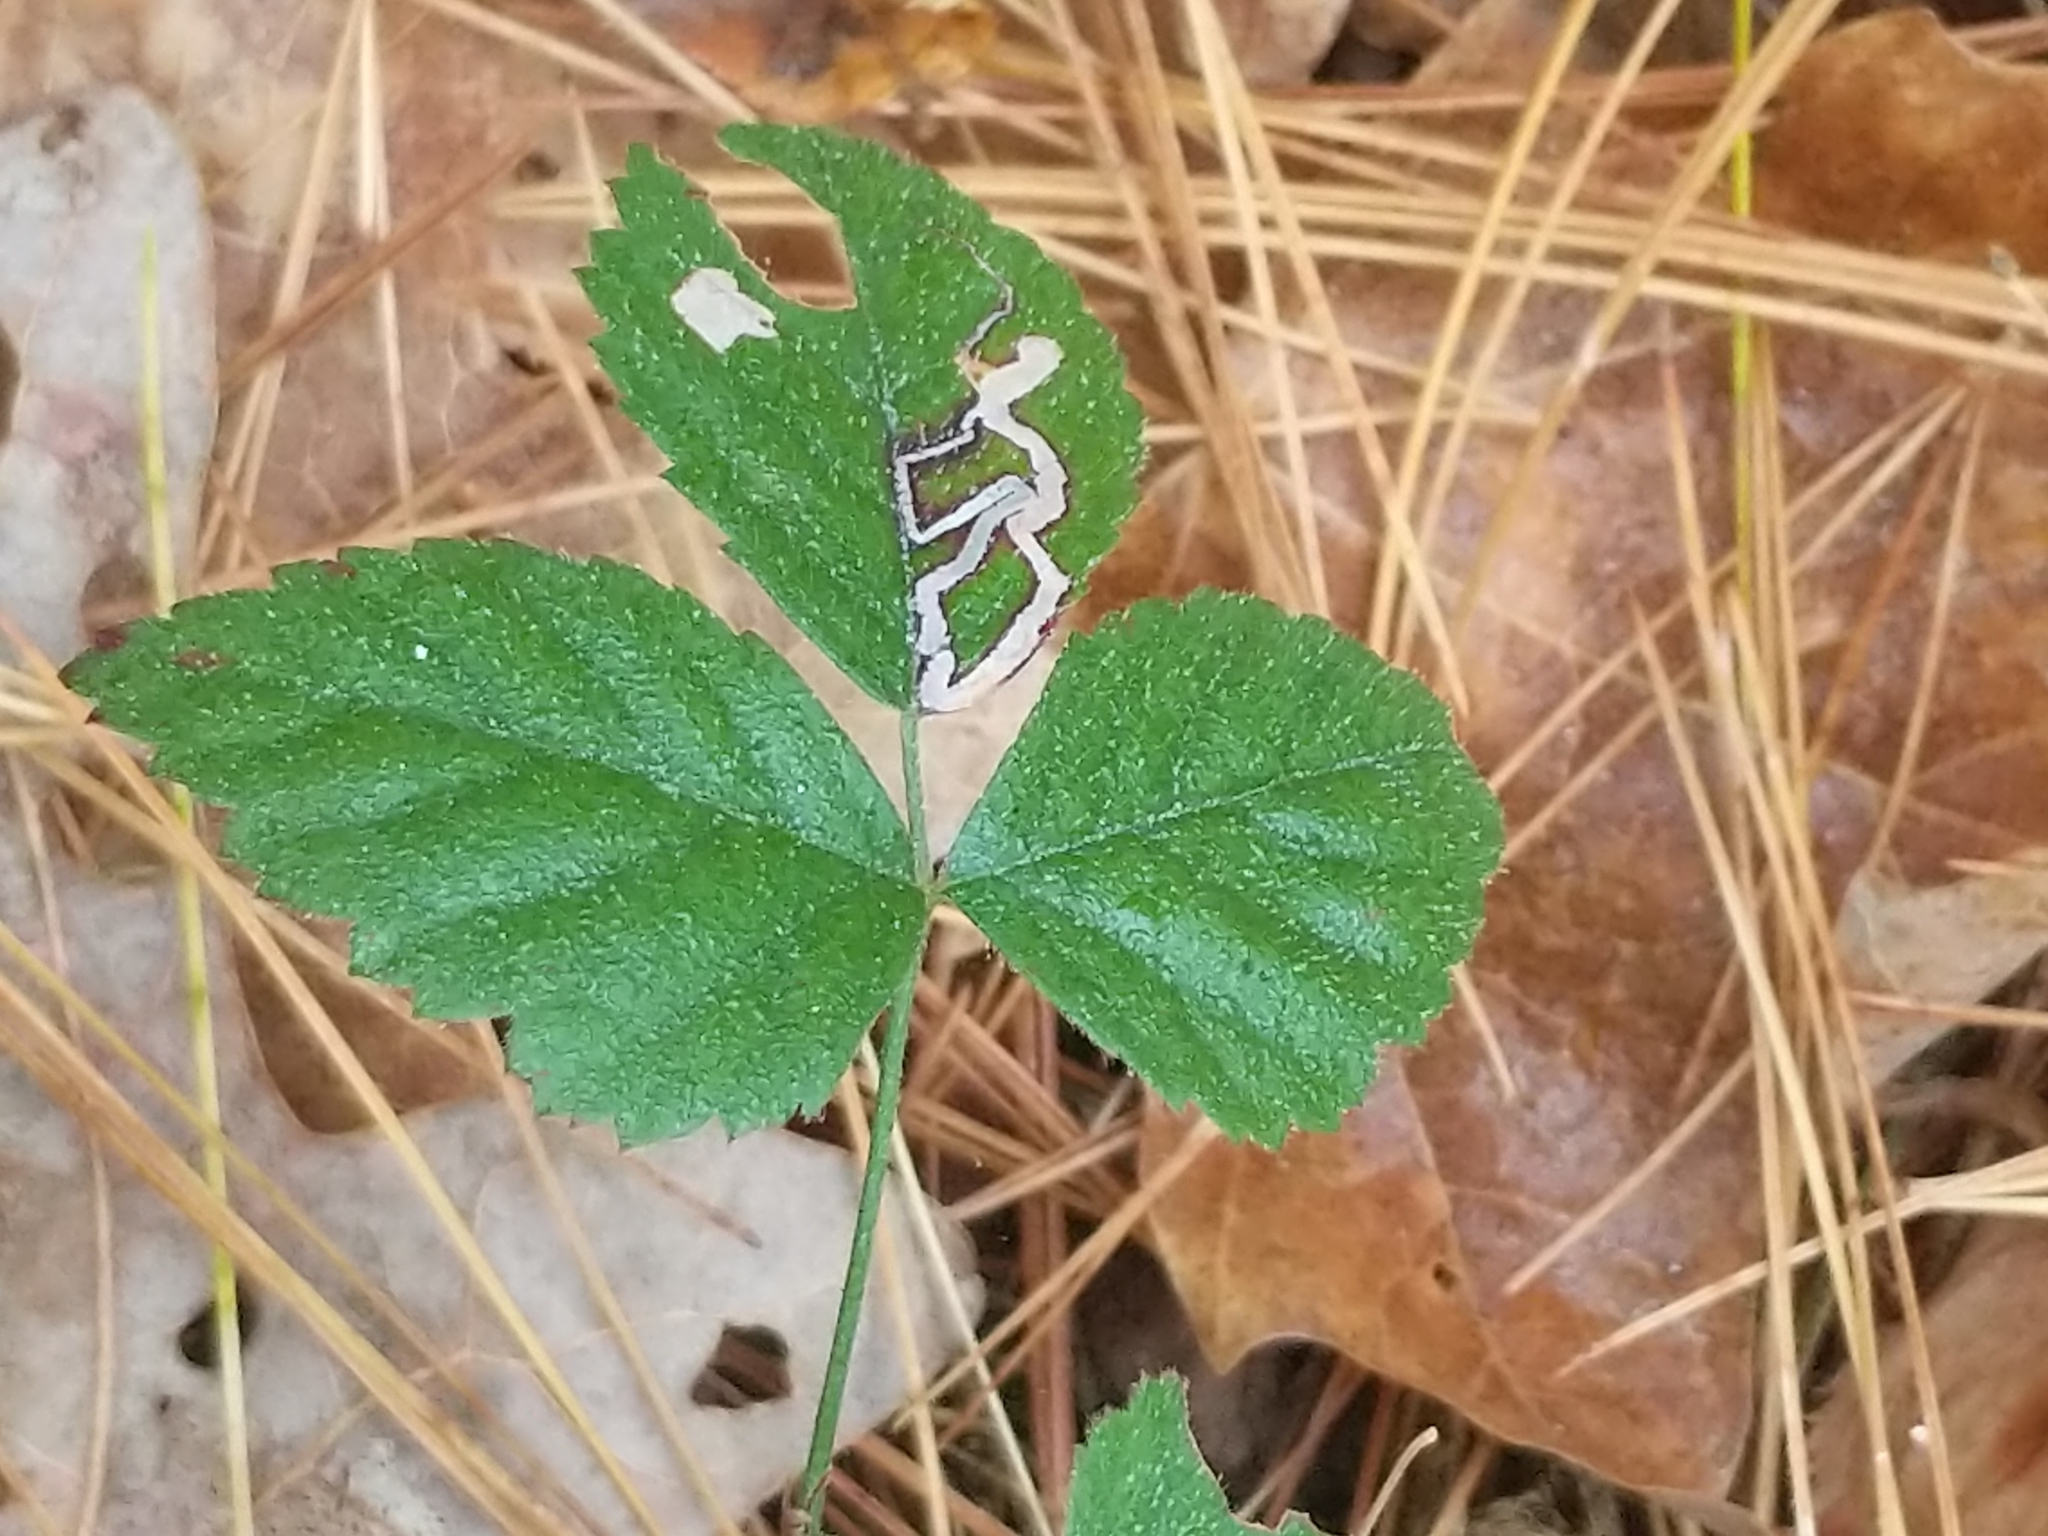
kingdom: Animalia
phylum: Arthropoda
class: Insecta
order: Lepidoptera
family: Nepticulidae
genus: Stigmella
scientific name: Stigmella villosella
